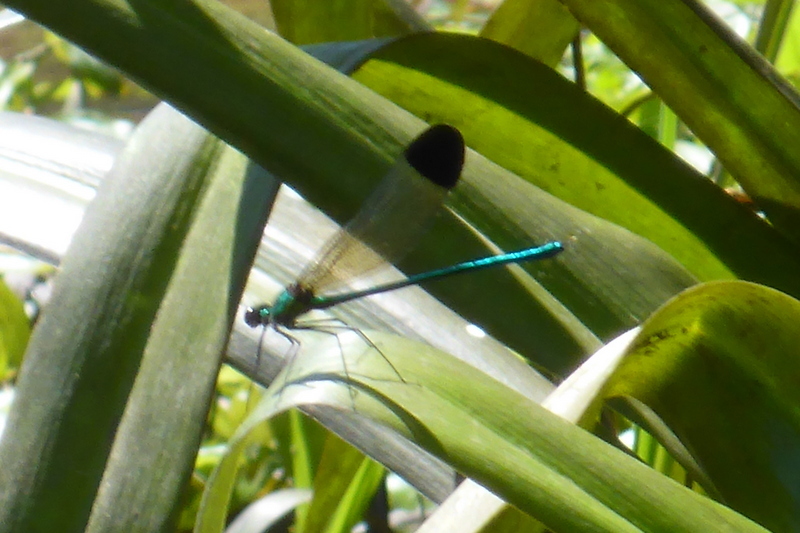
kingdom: Animalia
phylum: Arthropoda
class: Insecta
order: Odonata
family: Calopterygidae
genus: Calopteryx
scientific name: Calopteryx dimidiata
